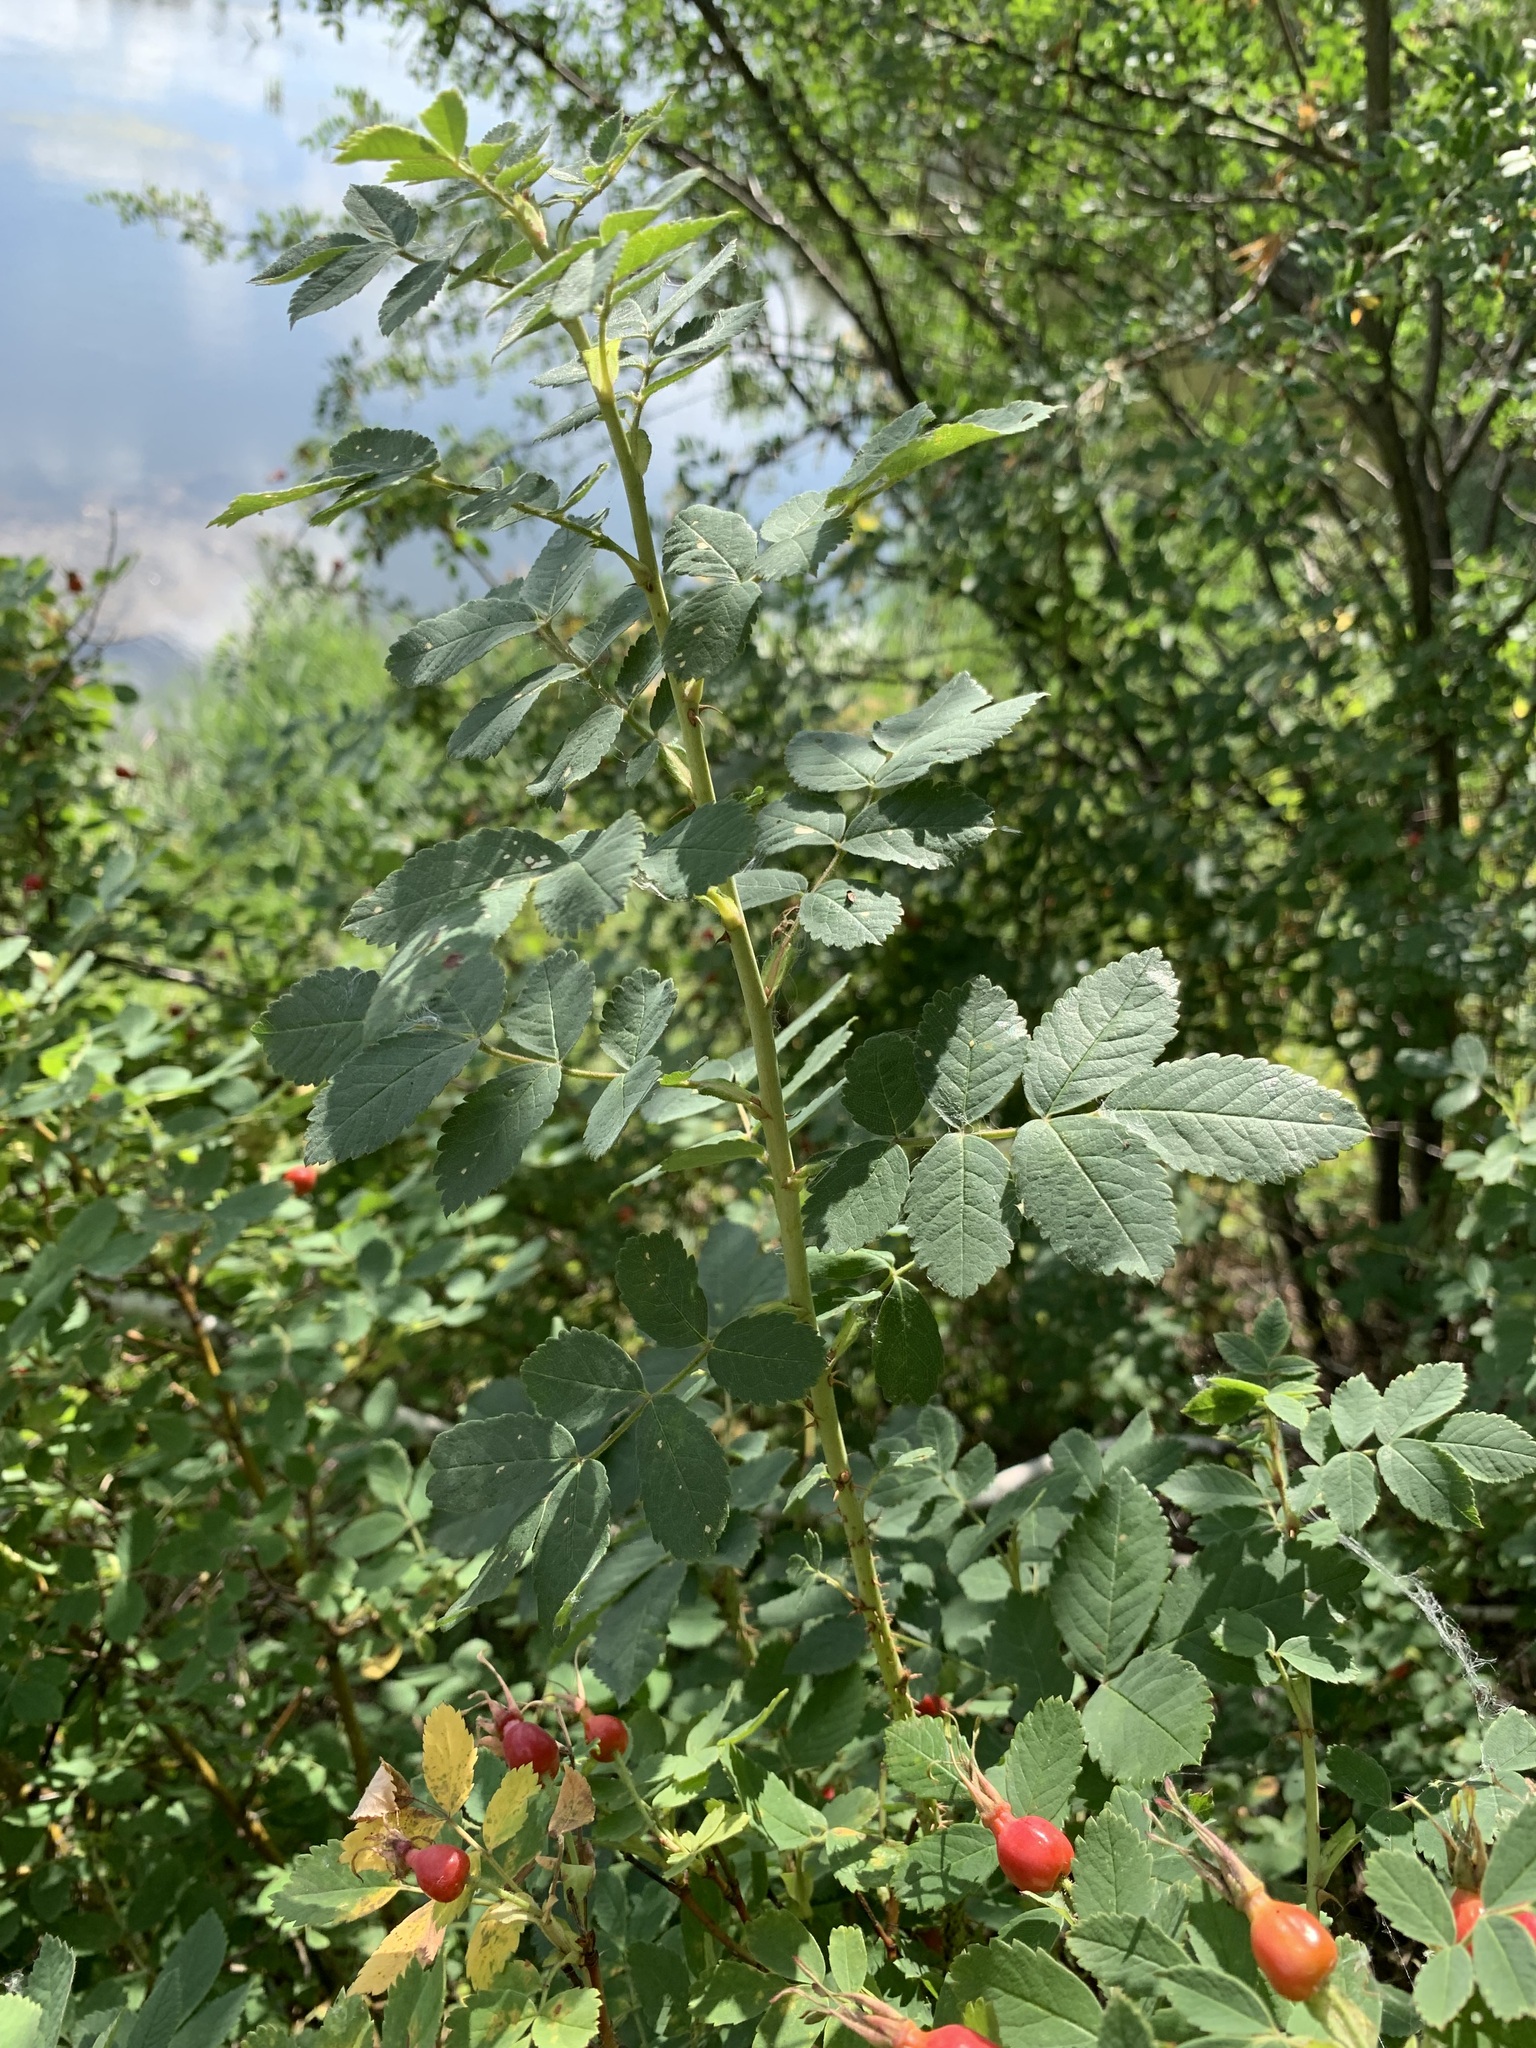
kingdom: Plantae
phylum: Tracheophyta
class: Magnoliopsida
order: Rosales
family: Rosaceae
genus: Rosa
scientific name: Rosa majalis
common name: Cinnamon rose
